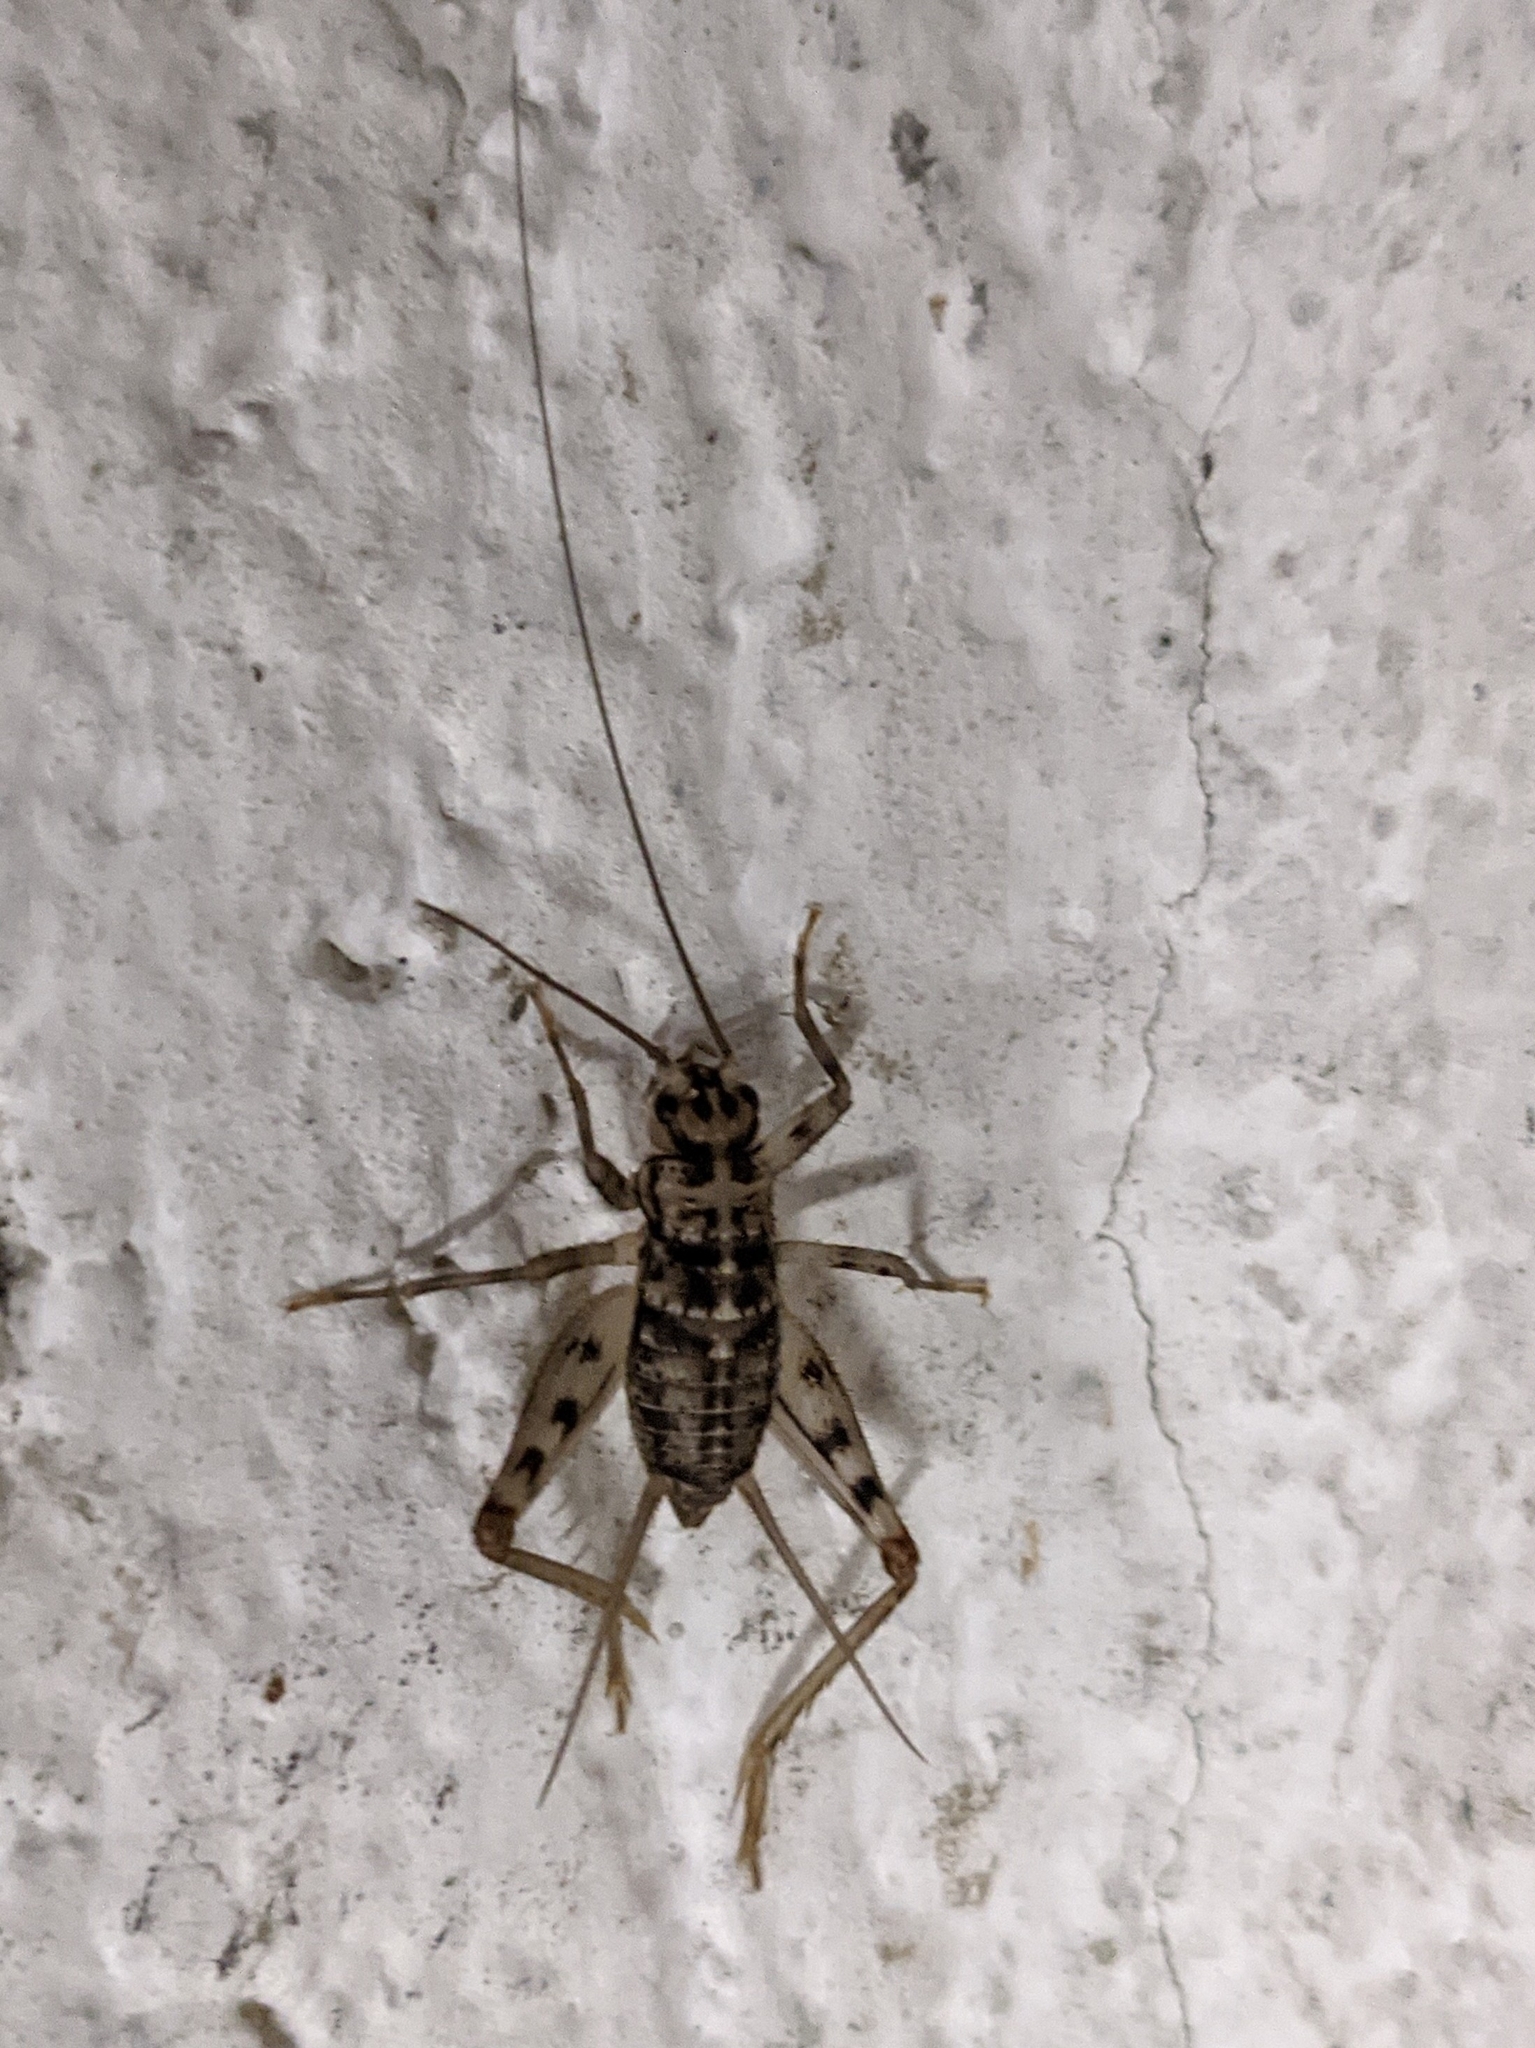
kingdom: Animalia
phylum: Arthropoda
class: Insecta
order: Orthoptera
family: Gryllidae
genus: Gryllomorpha
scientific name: Gryllomorpha dalmatina
